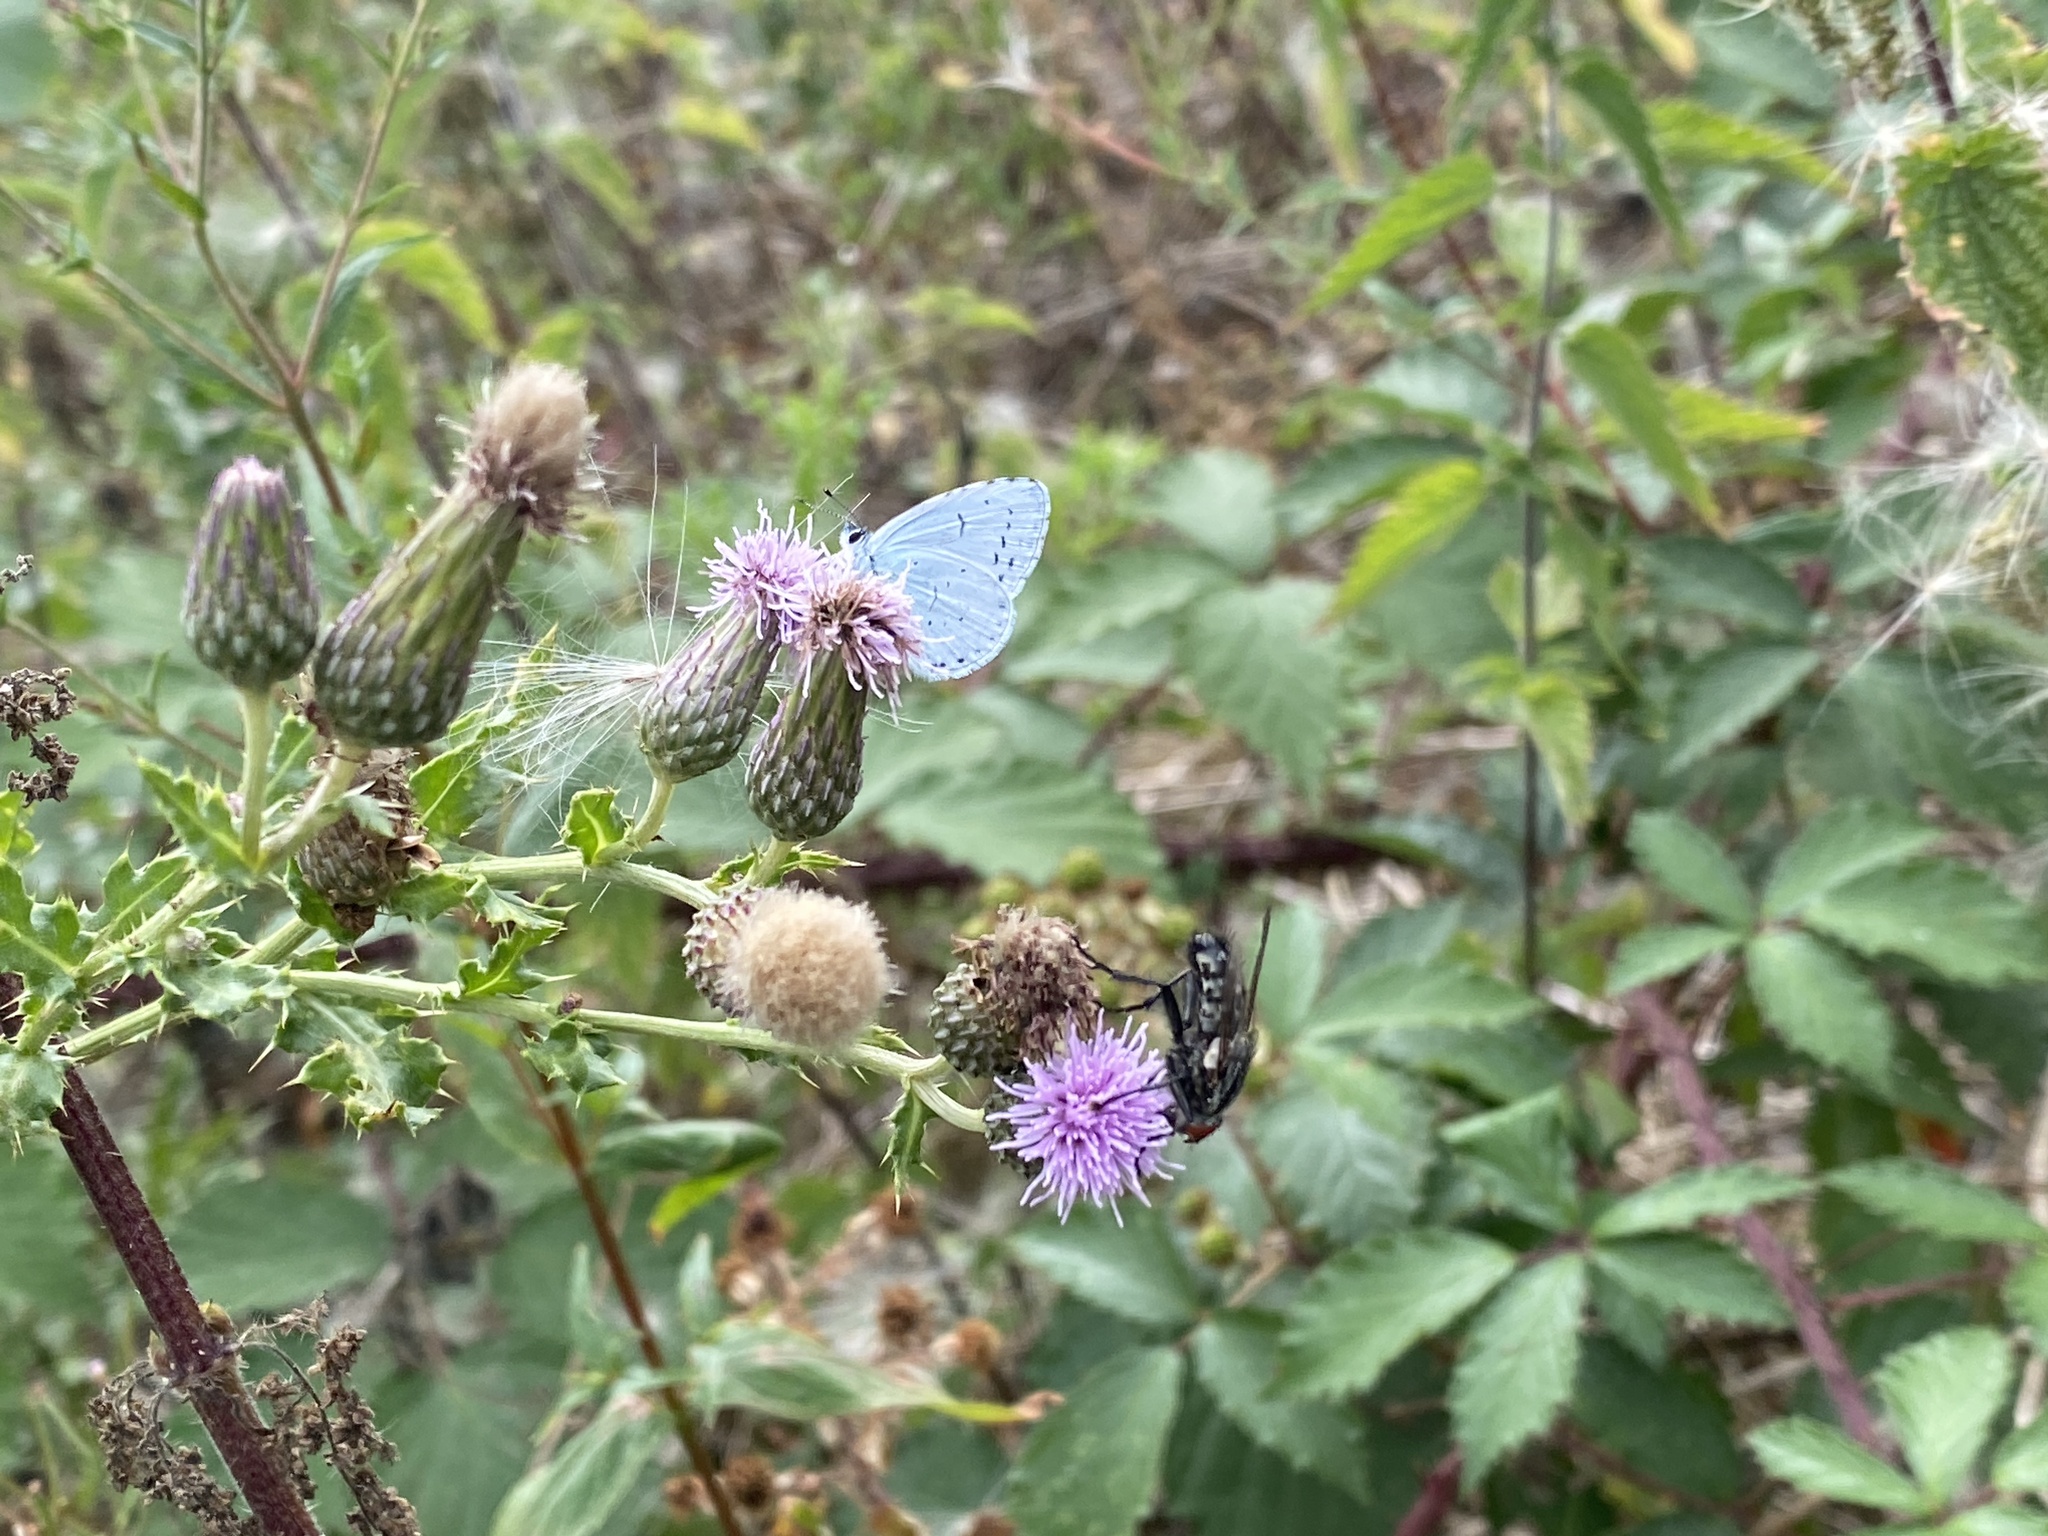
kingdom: Animalia
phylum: Arthropoda
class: Insecta
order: Lepidoptera
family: Lycaenidae
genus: Celastrina
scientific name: Celastrina argiolus
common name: Holly blue
